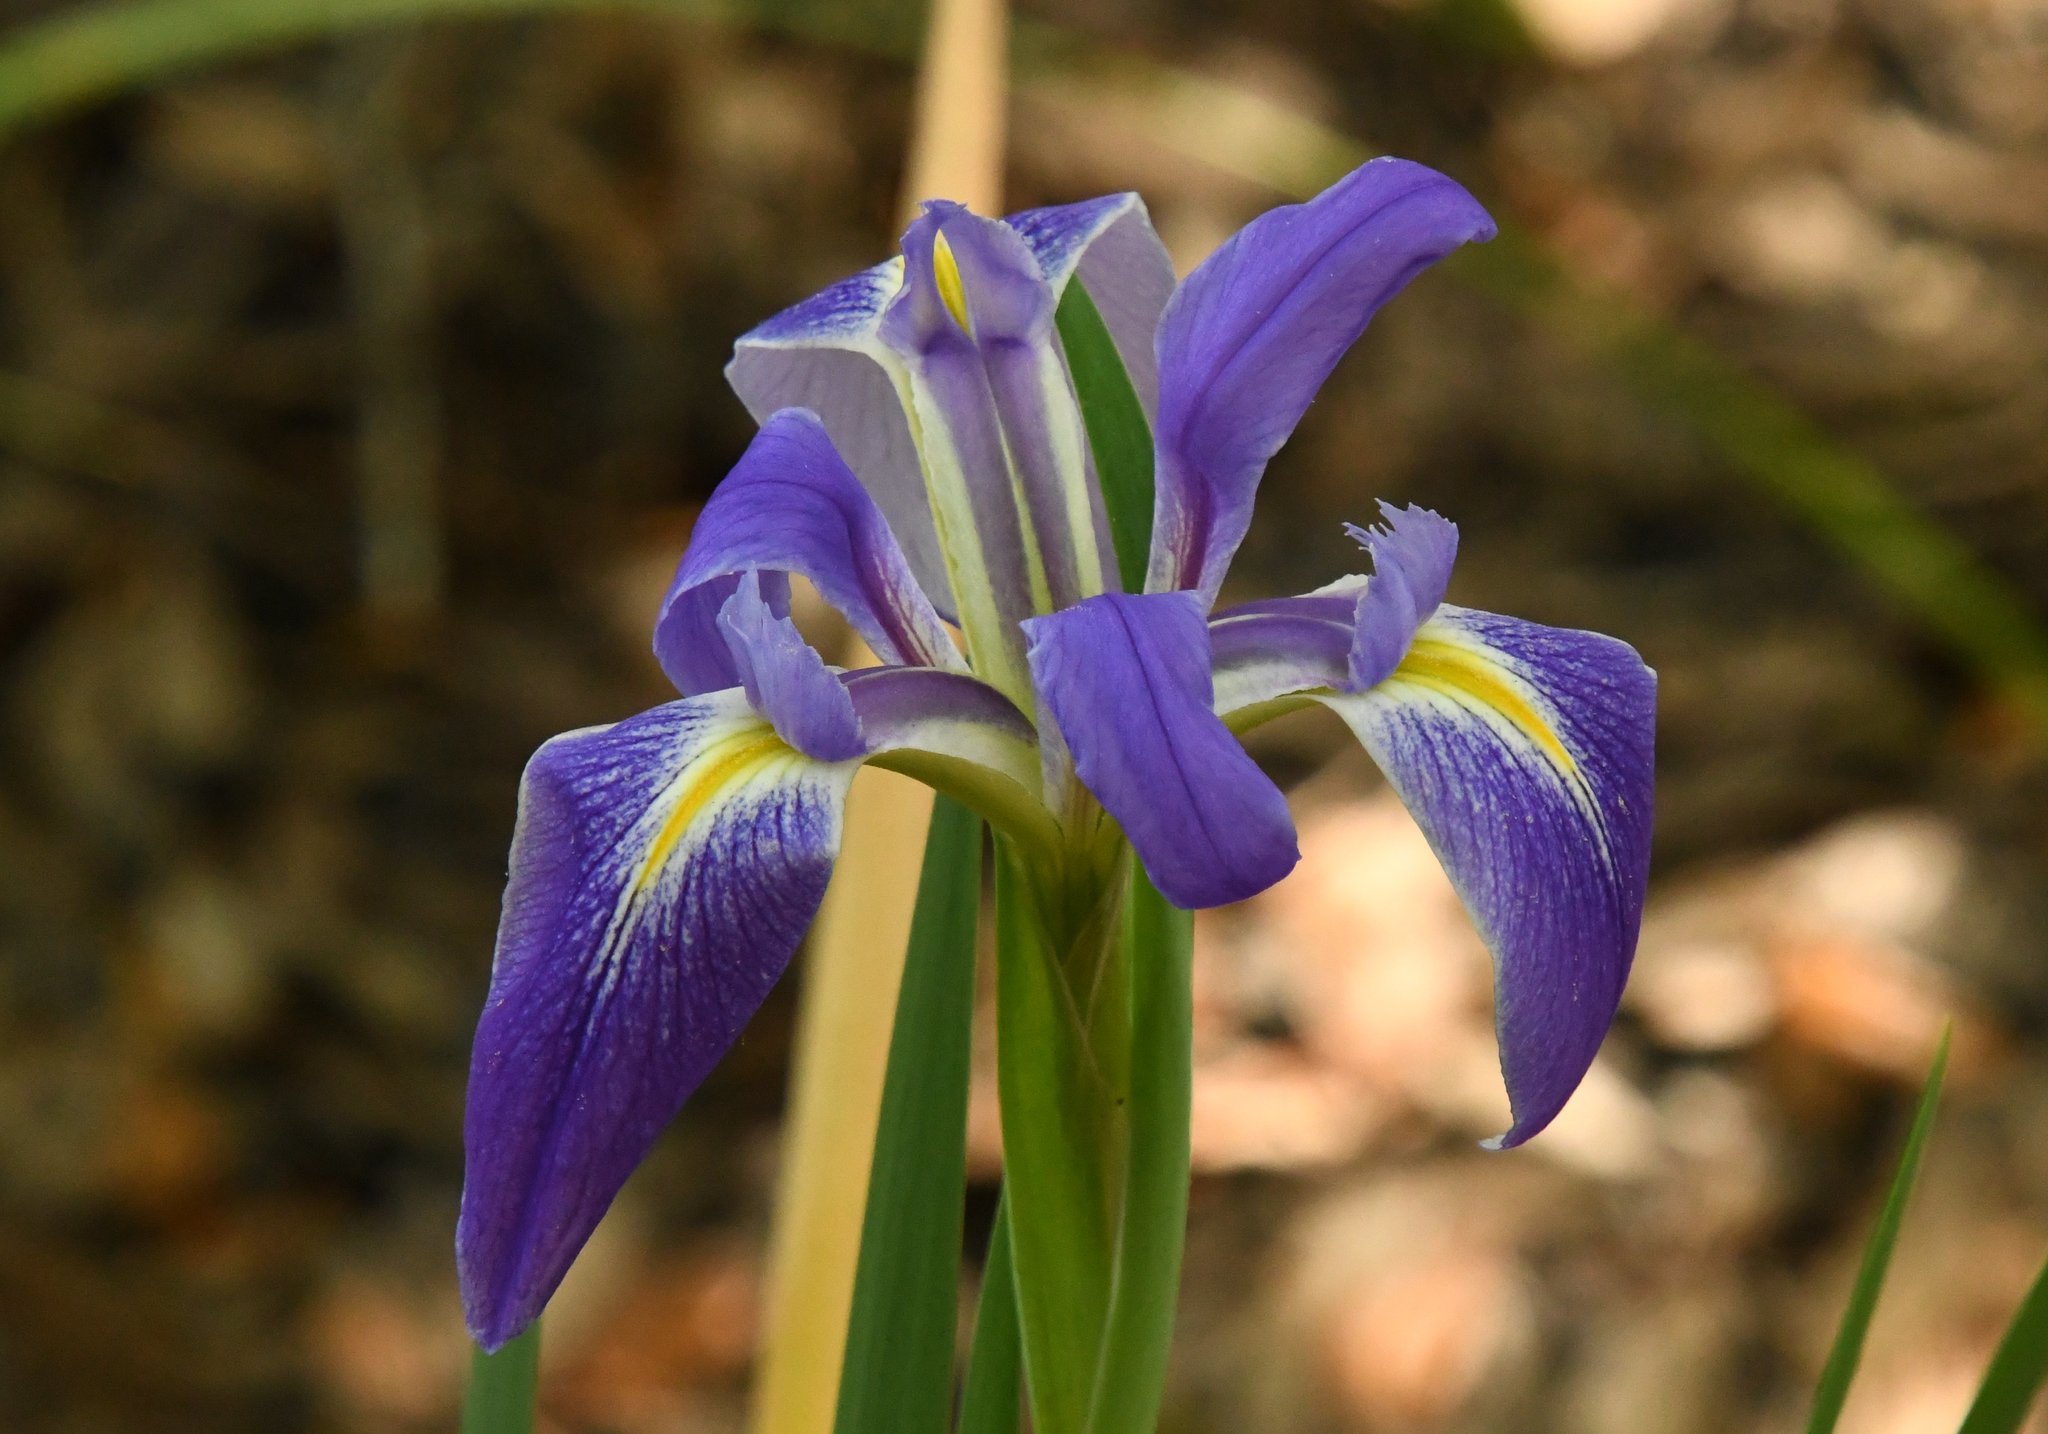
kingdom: Plantae
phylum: Tracheophyta
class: Liliopsida
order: Asparagales
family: Iridaceae
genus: Iris
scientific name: Iris savannarum
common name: Prairie iris
